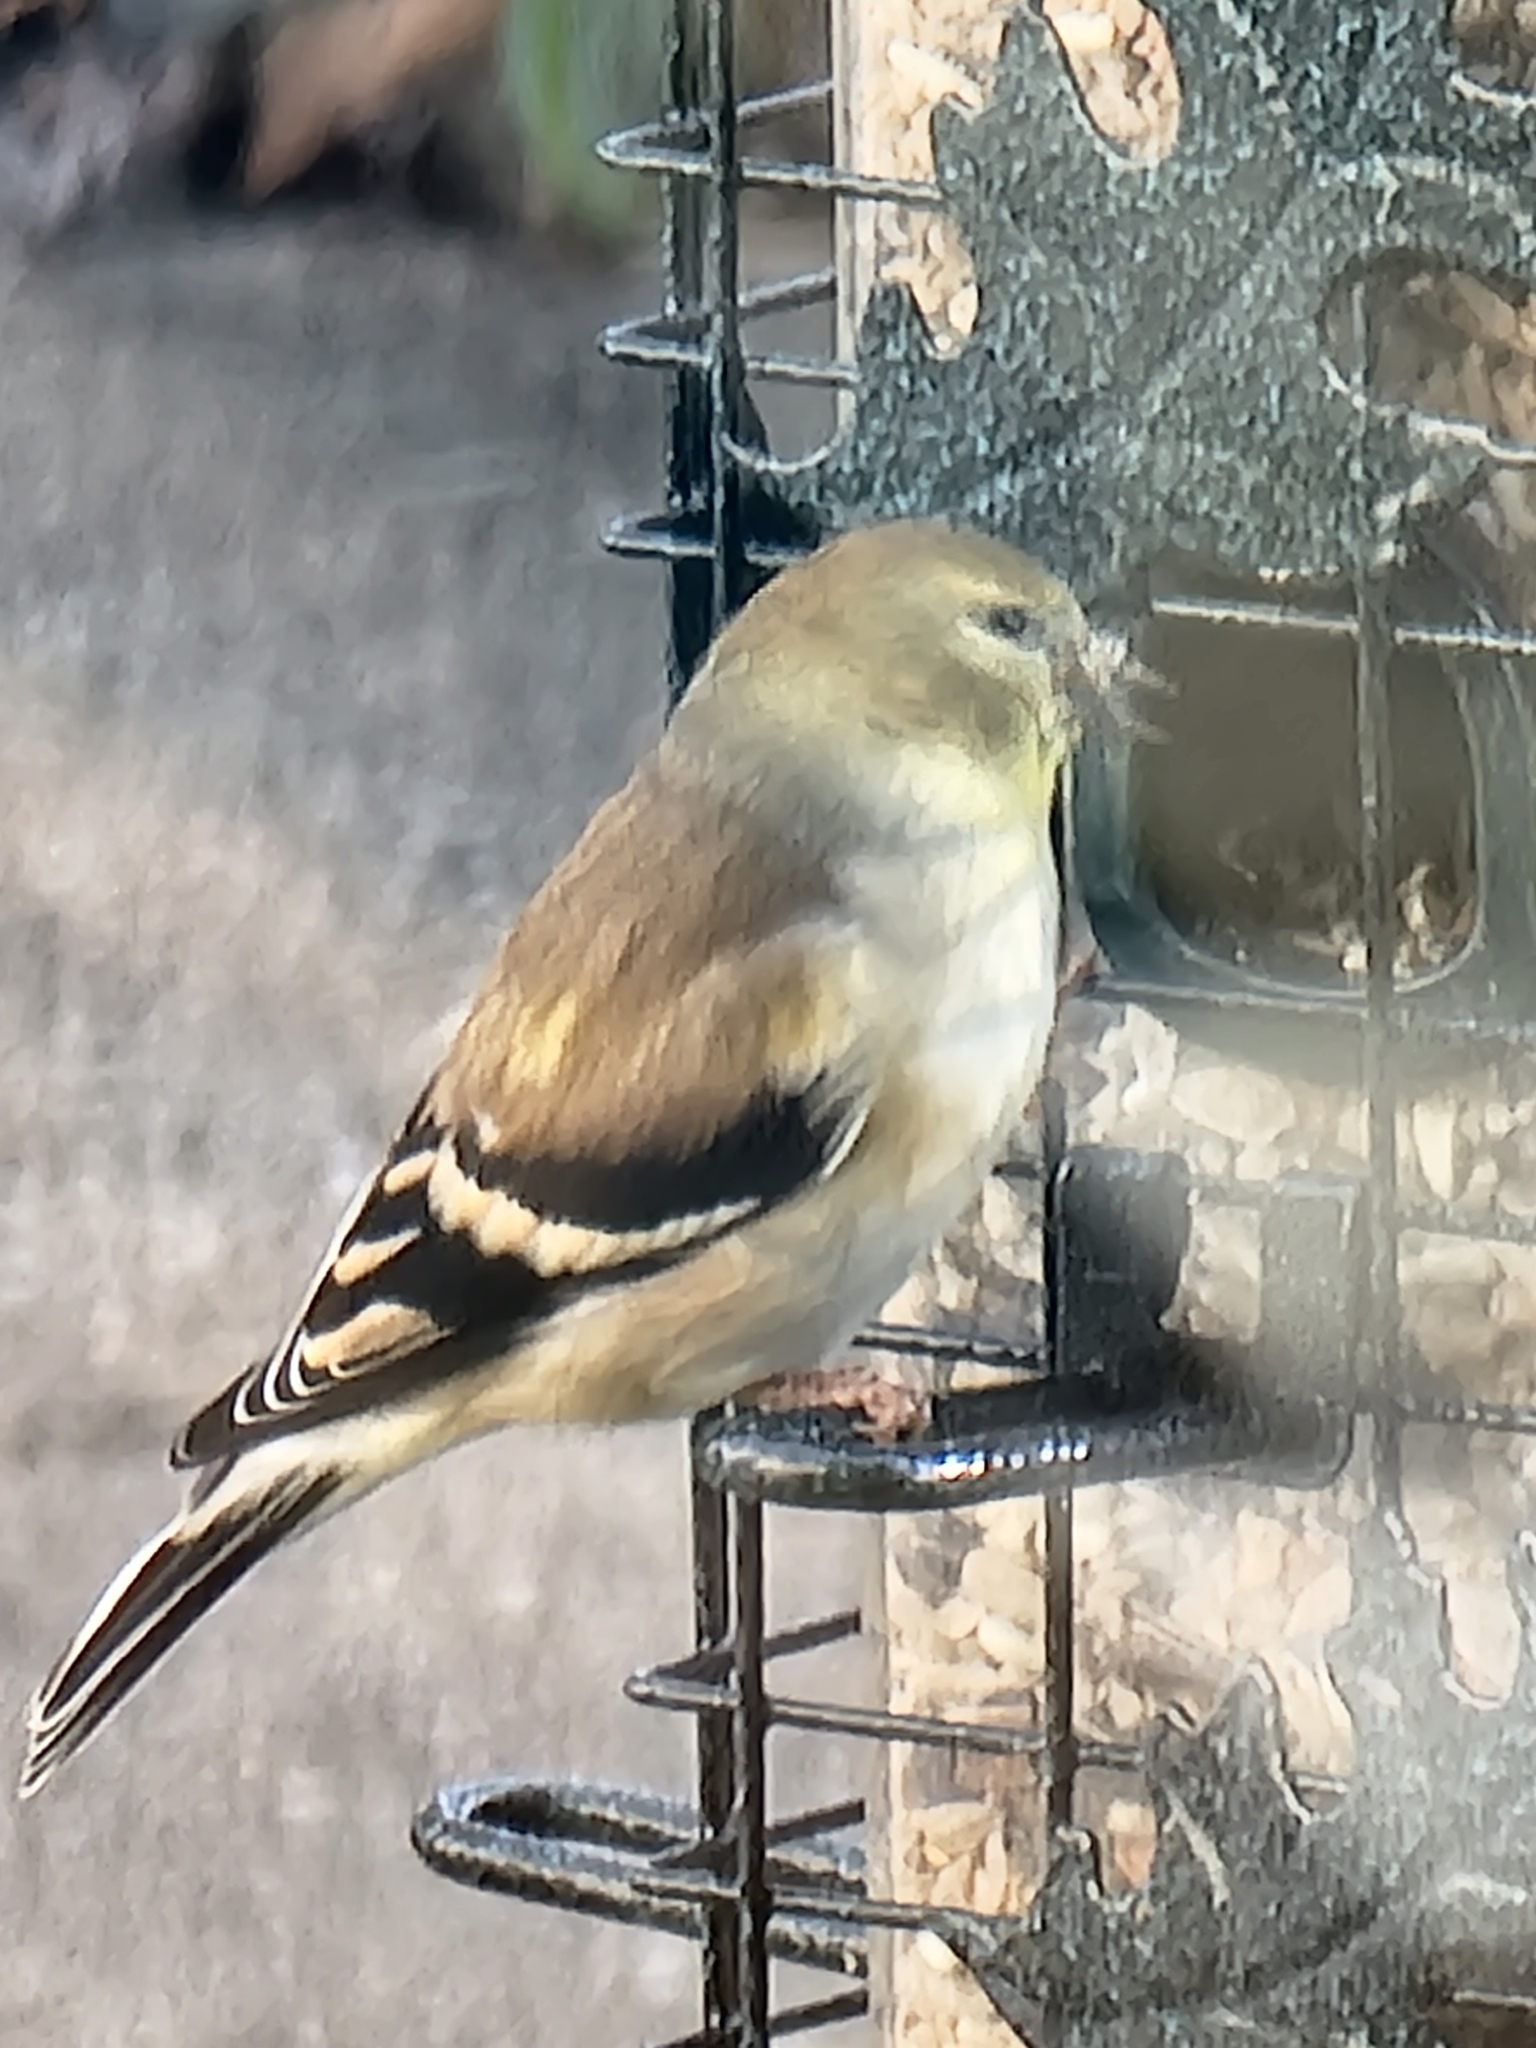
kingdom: Animalia
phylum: Chordata
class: Aves
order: Passeriformes
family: Fringillidae
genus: Spinus
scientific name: Spinus tristis
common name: American goldfinch
